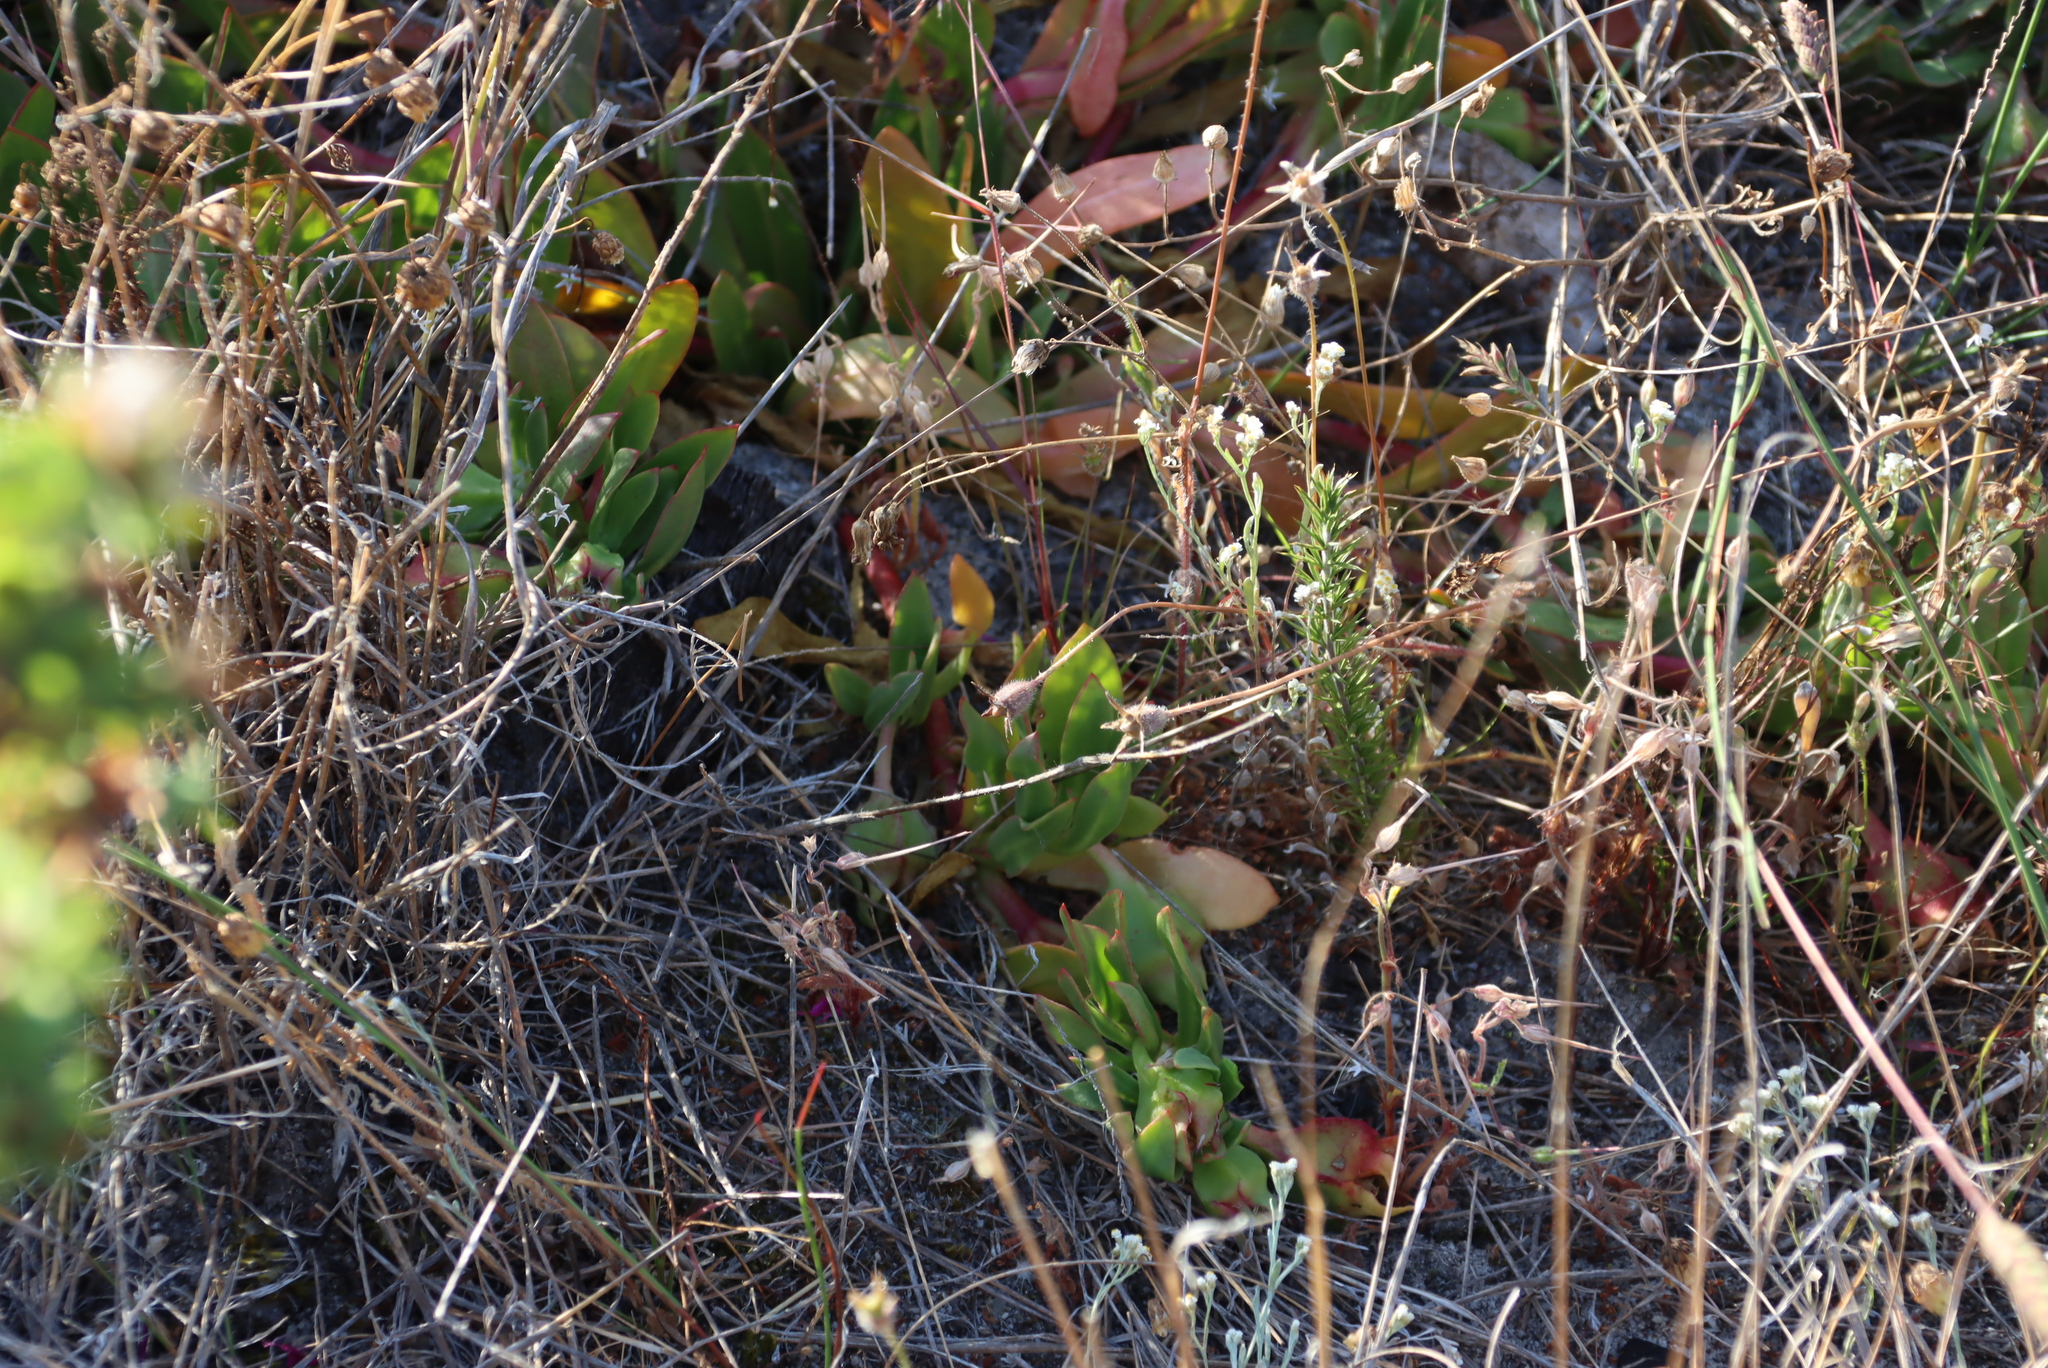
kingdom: Plantae
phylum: Tracheophyta
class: Magnoliopsida
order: Caryophyllales
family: Aizoaceae
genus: Skiatophytum
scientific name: Skiatophytum tripolium
